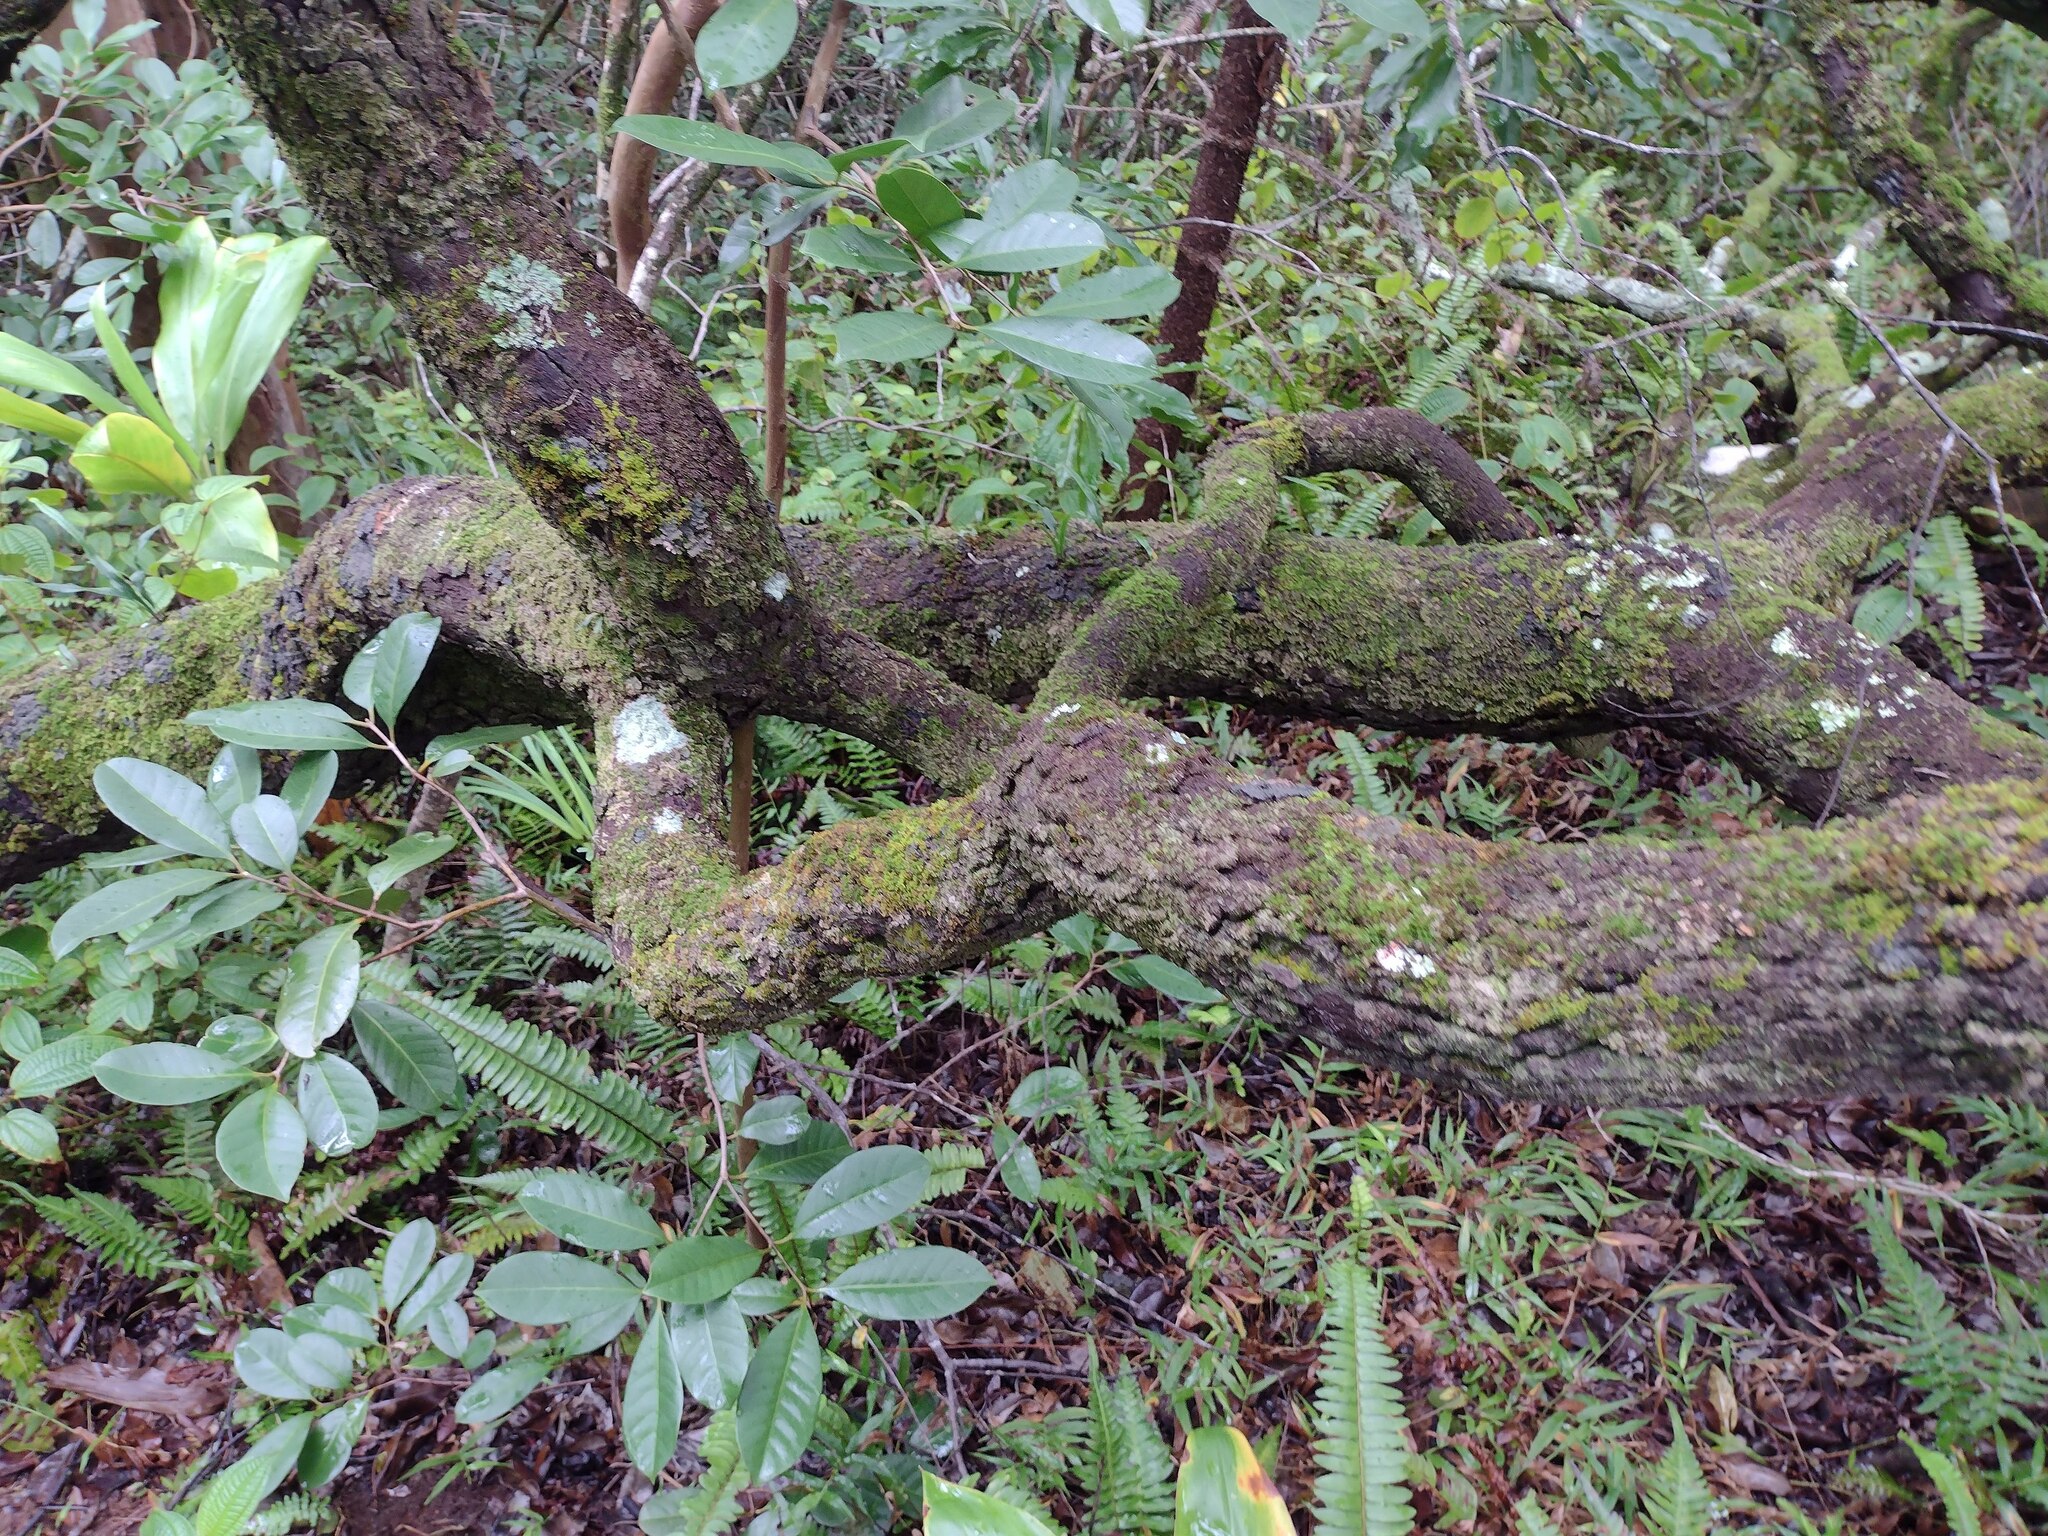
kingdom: Plantae
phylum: Tracheophyta
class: Magnoliopsida
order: Ericales
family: Ebenaceae
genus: Diospyros
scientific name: Diospyros sandwicensis
